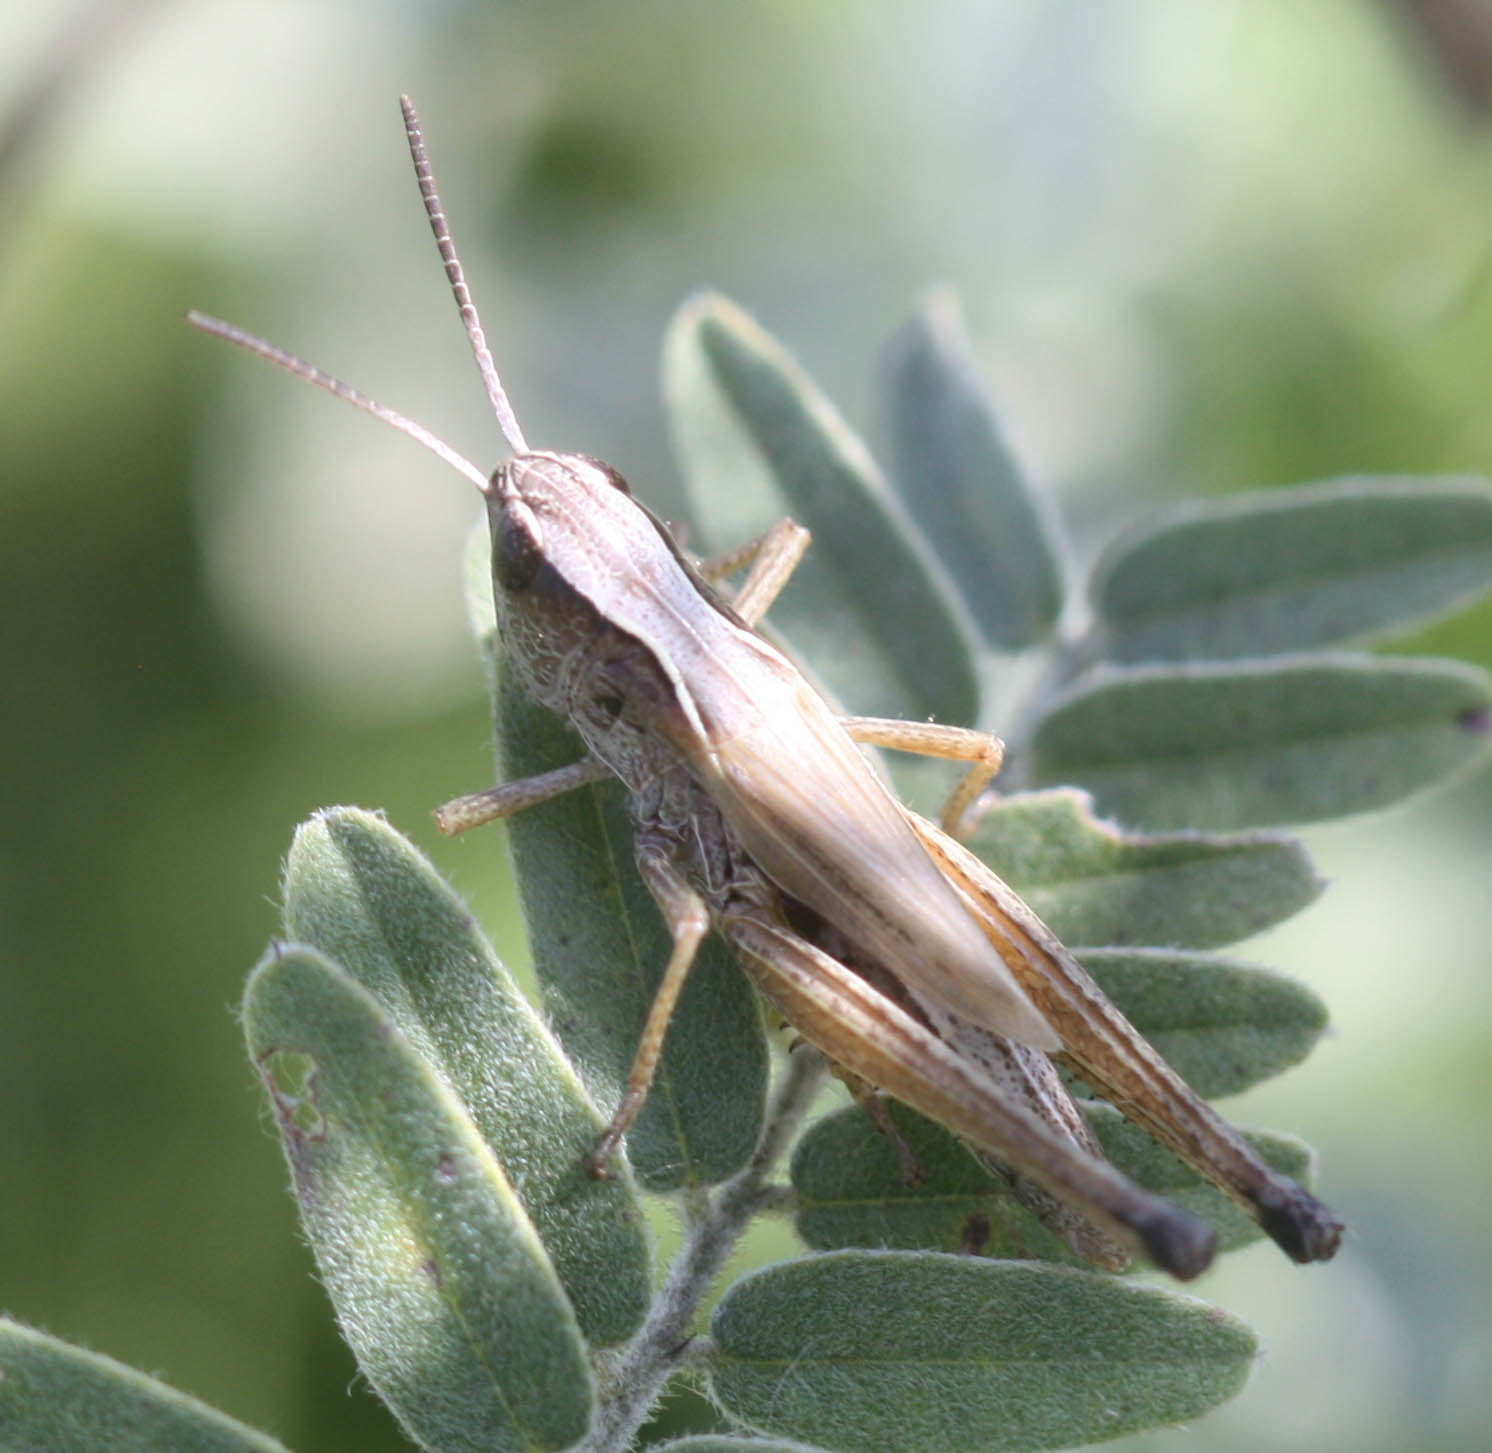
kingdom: Animalia
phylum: Arthropoda
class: Insecta
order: Orthoptera
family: Acrididae
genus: Pseudochorthippus
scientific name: Pseudochorthippus curtipennis
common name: Marsh meadow grasshopper
